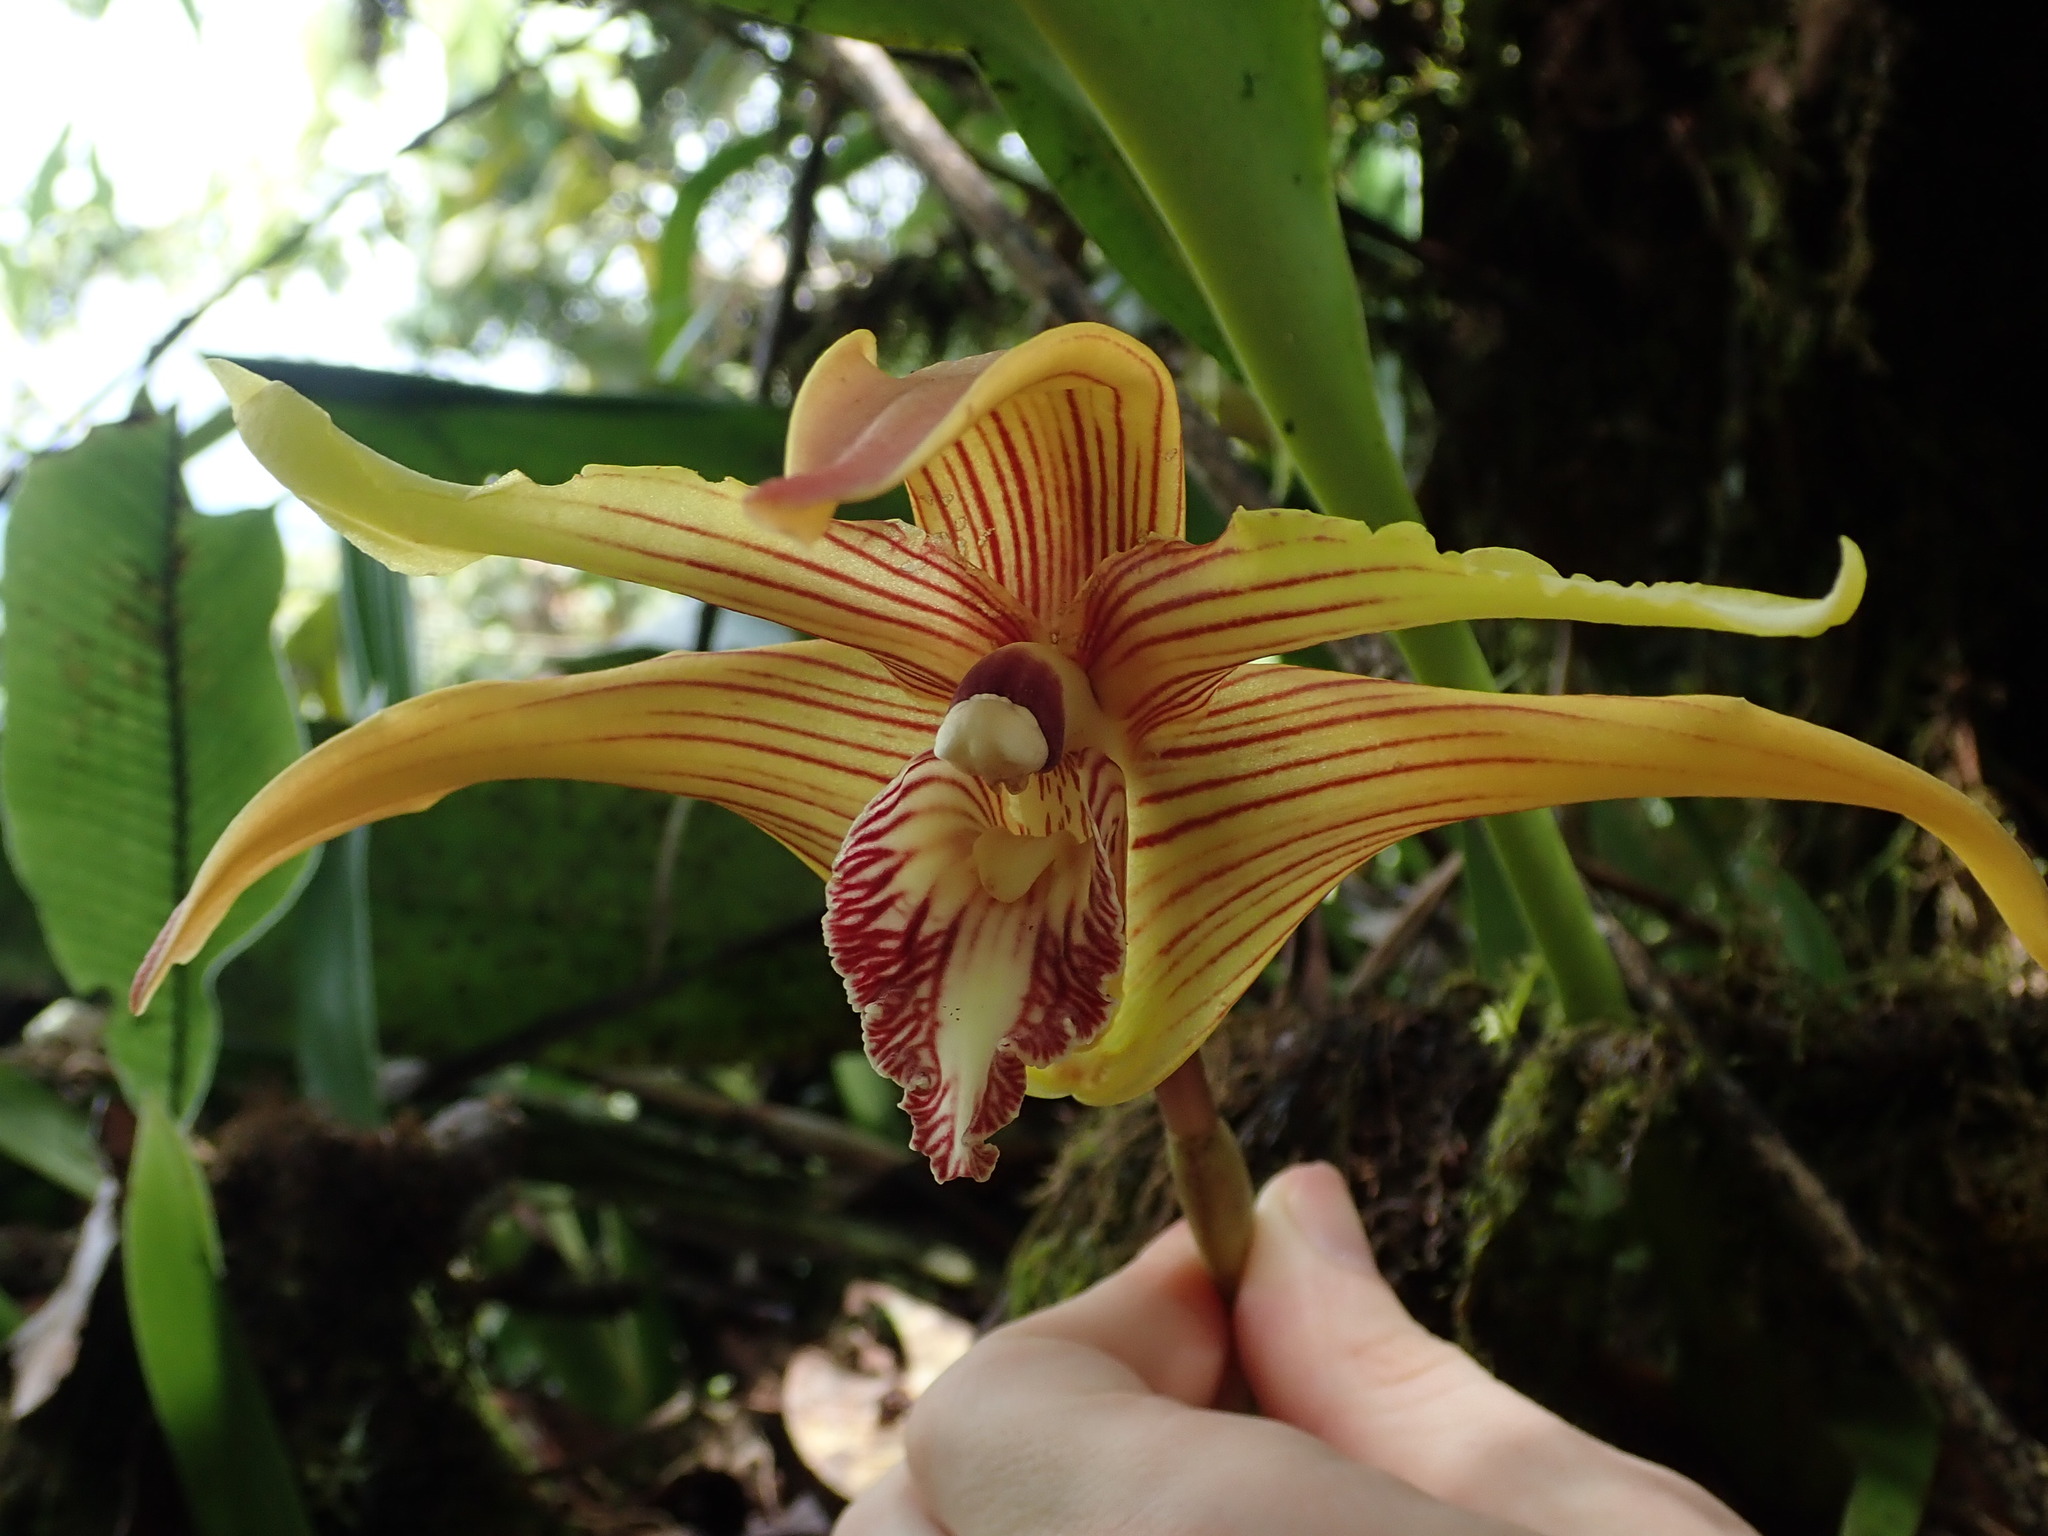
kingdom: Plantae
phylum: Tracheophyta
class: Liliopsida
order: Asparagales
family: Orchidaceae
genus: Maxillaria
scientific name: Maxillaria striata
